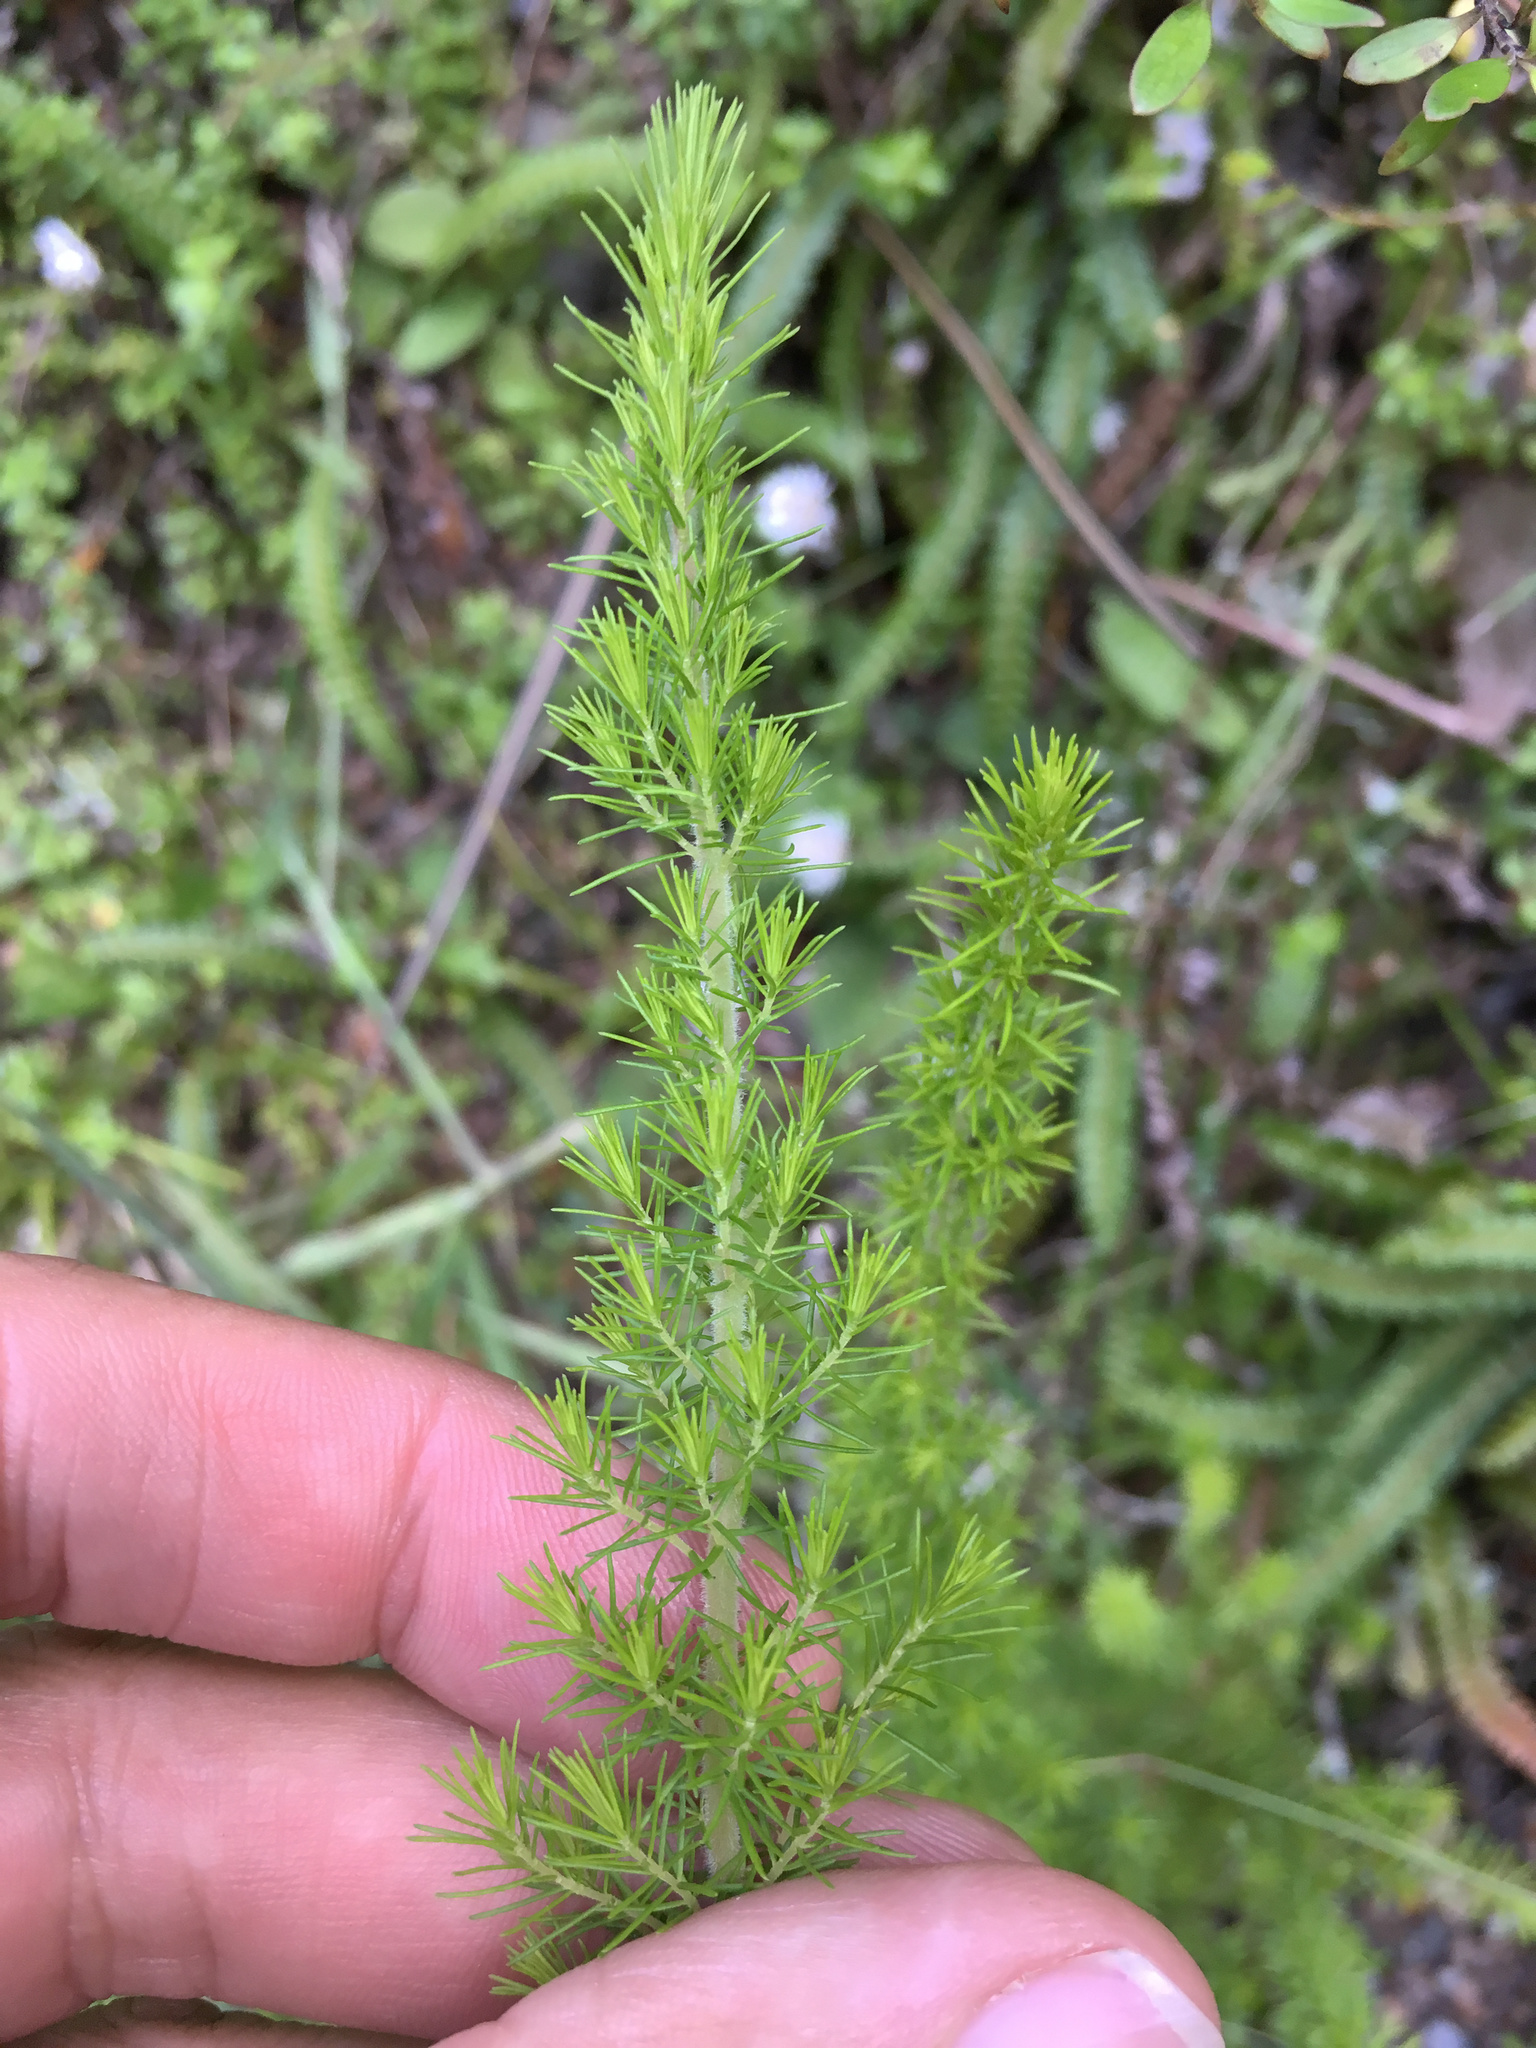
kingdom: Plantae
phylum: Tracheophyta
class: Magnoliopsida
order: Ericales
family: Ericaceae
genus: Erica
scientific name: Erica lusitanica
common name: Spanish heath
